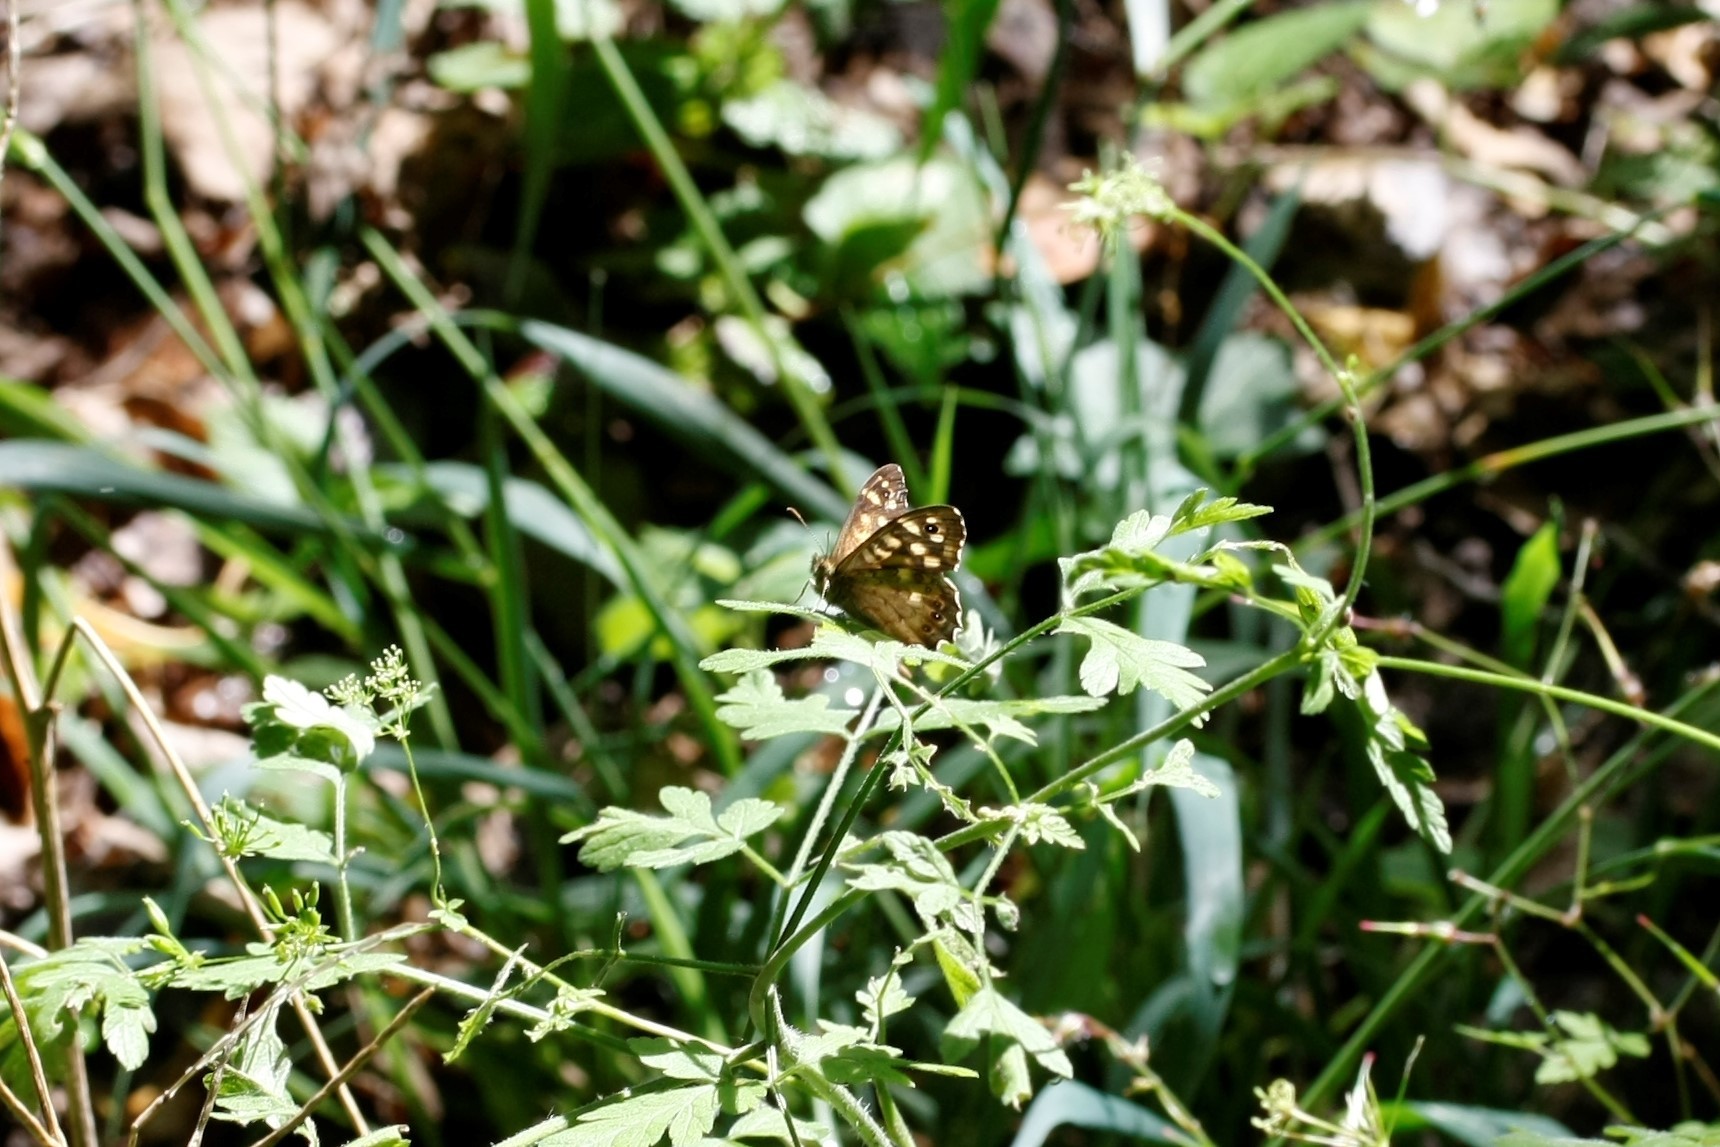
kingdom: Animalia
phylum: Arthropoda
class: Insecta
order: Lepidoptera
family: Nymphalidae
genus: Pararge
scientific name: Pararge aegeria
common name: Speckled wood
